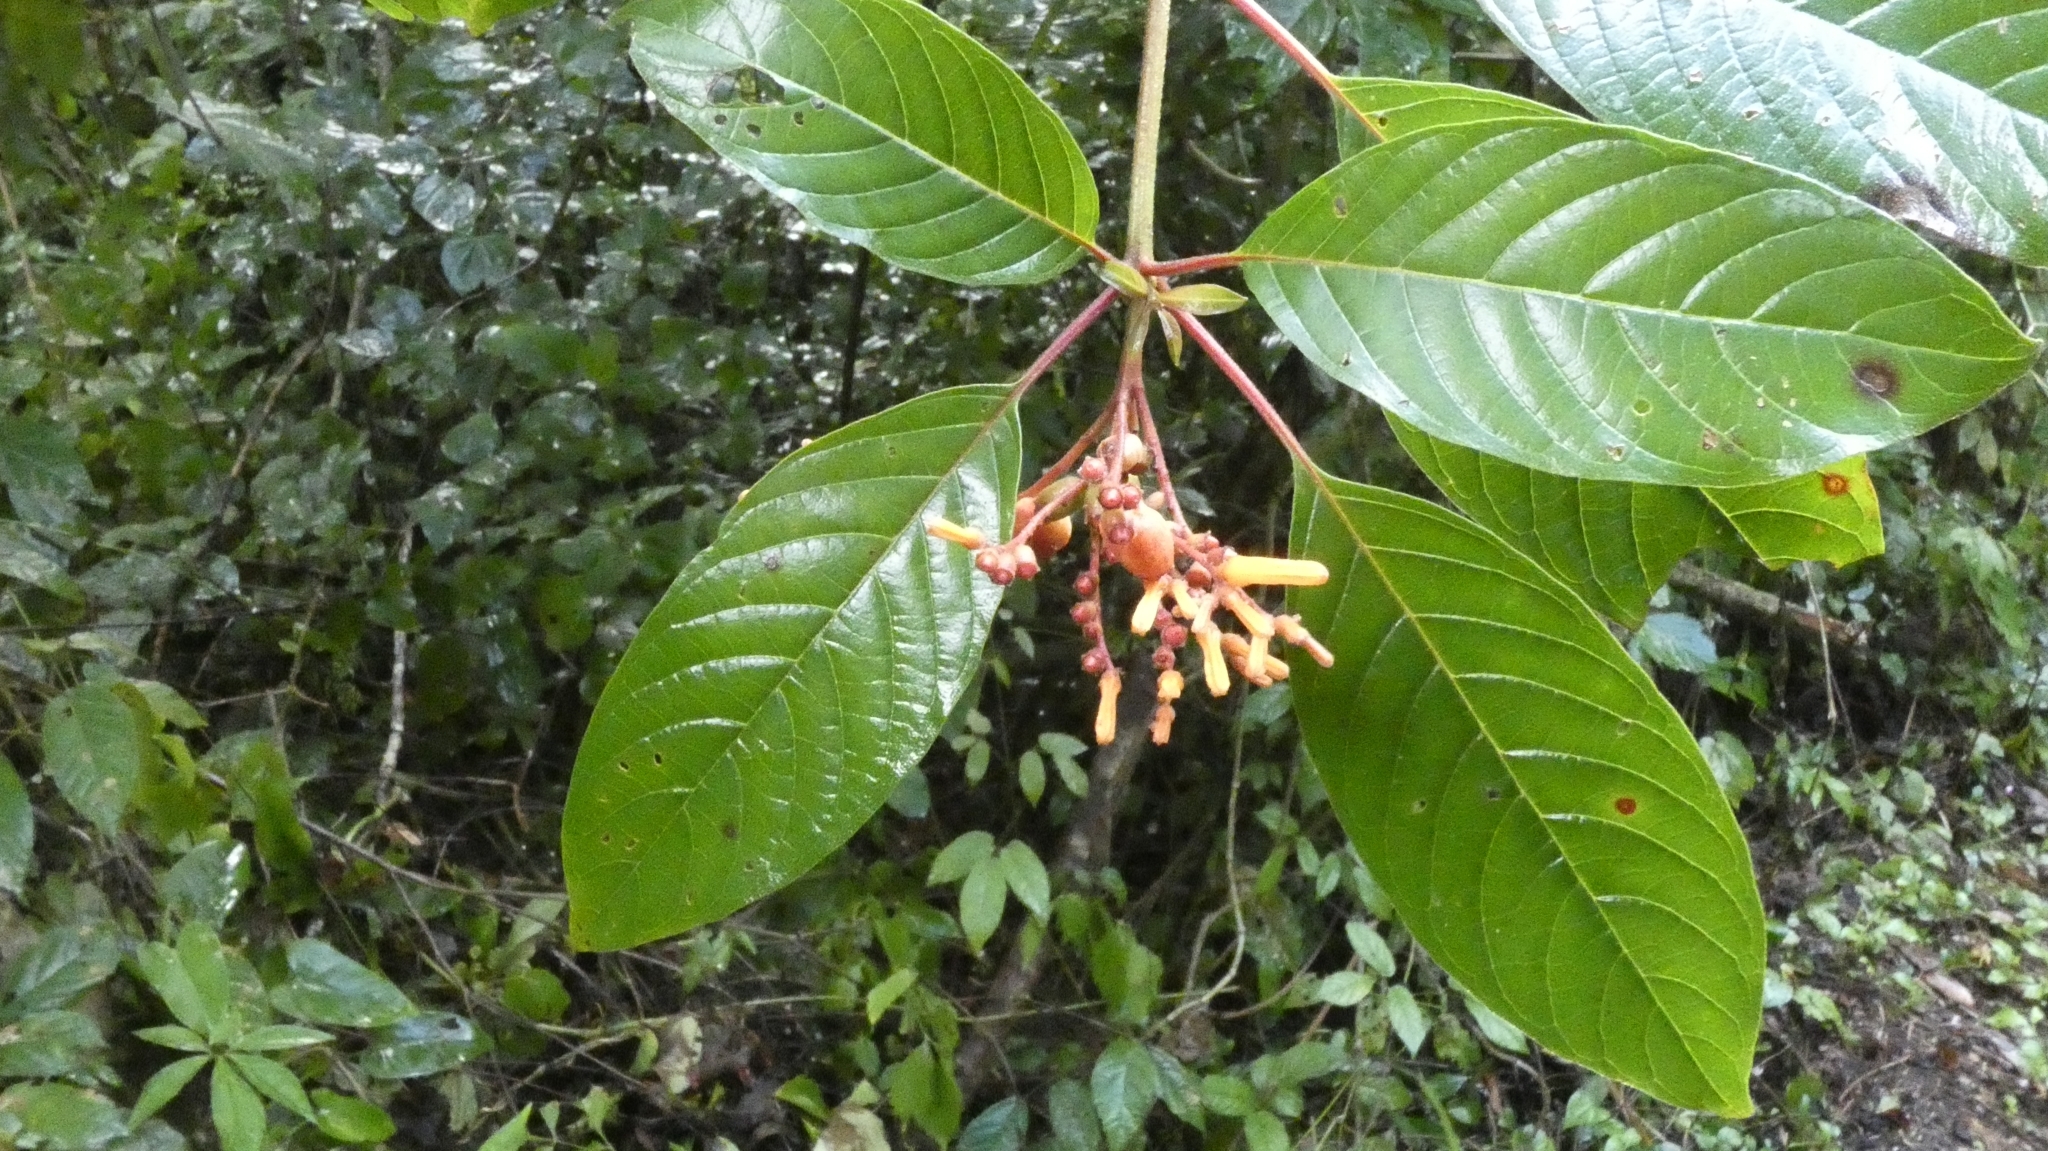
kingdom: Plantae
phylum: Tracheophyta
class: Magnoliopsida
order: Gentianales
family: Rubiaceae
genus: Hamelia
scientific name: Hamelia patens
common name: Redhead
